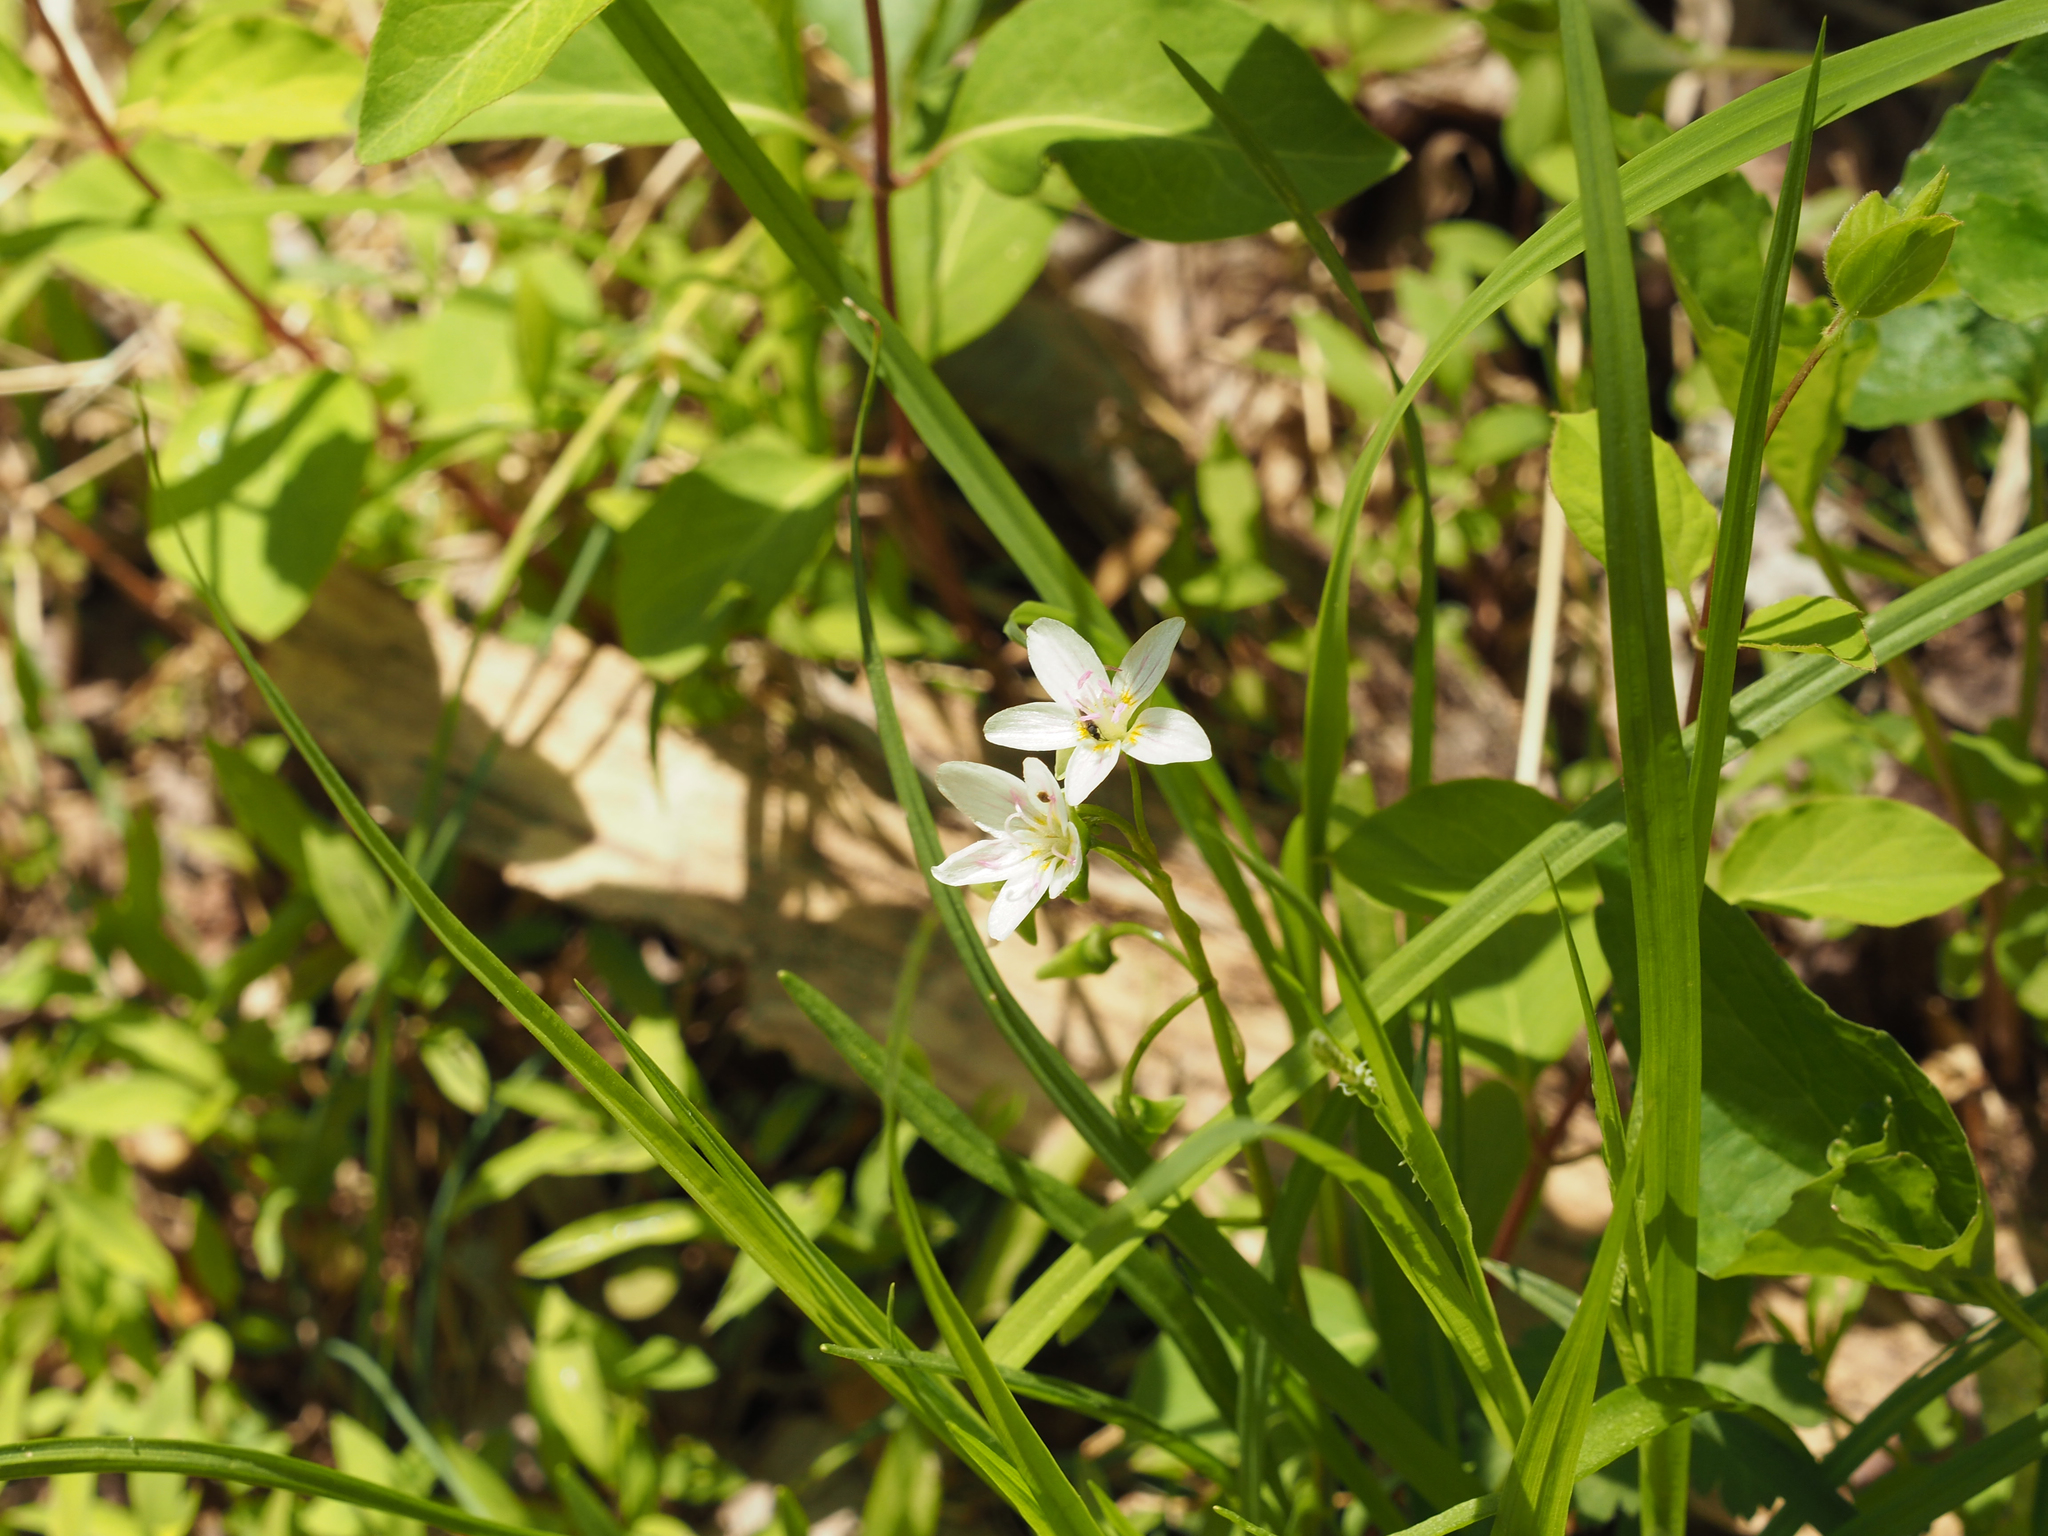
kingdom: Plantae
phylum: Tracheophyta
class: Magnoliopsida
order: Caryophyllales
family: Montiaceae
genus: Claytonia
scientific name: Claytonia virginica
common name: Virginia springbeauty
